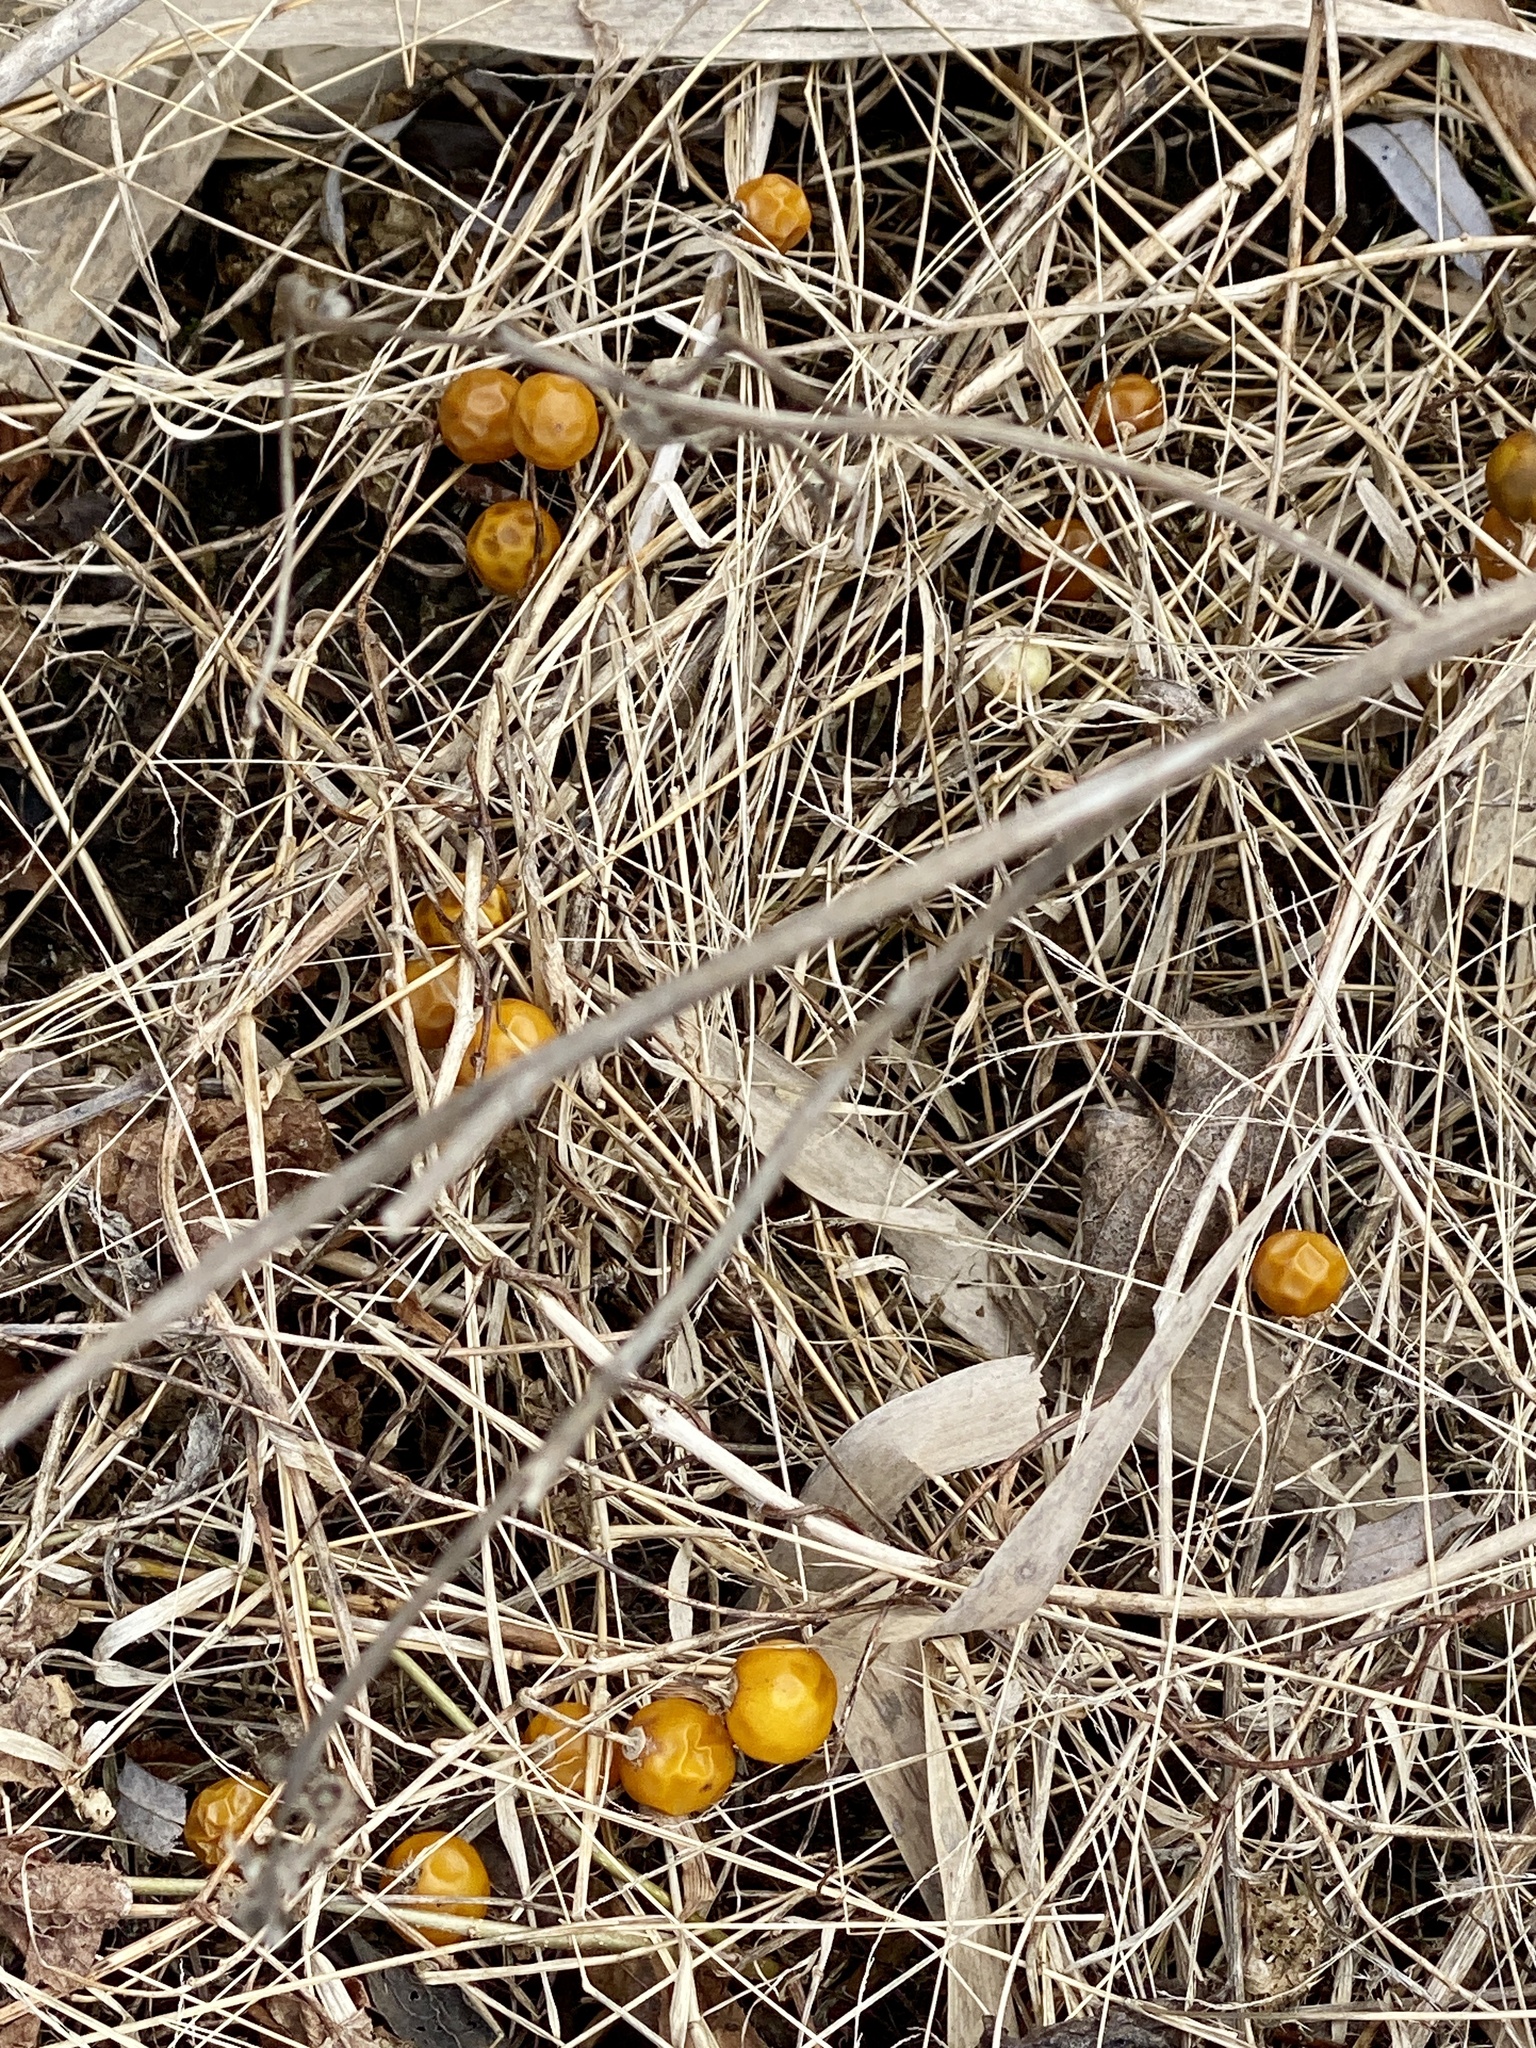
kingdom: Plantae
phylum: Tracheophyta
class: Magnoliopsida
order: Solanales
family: Solanaceae
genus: Solanum
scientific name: Solanum carolinense
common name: Horse-nettle
